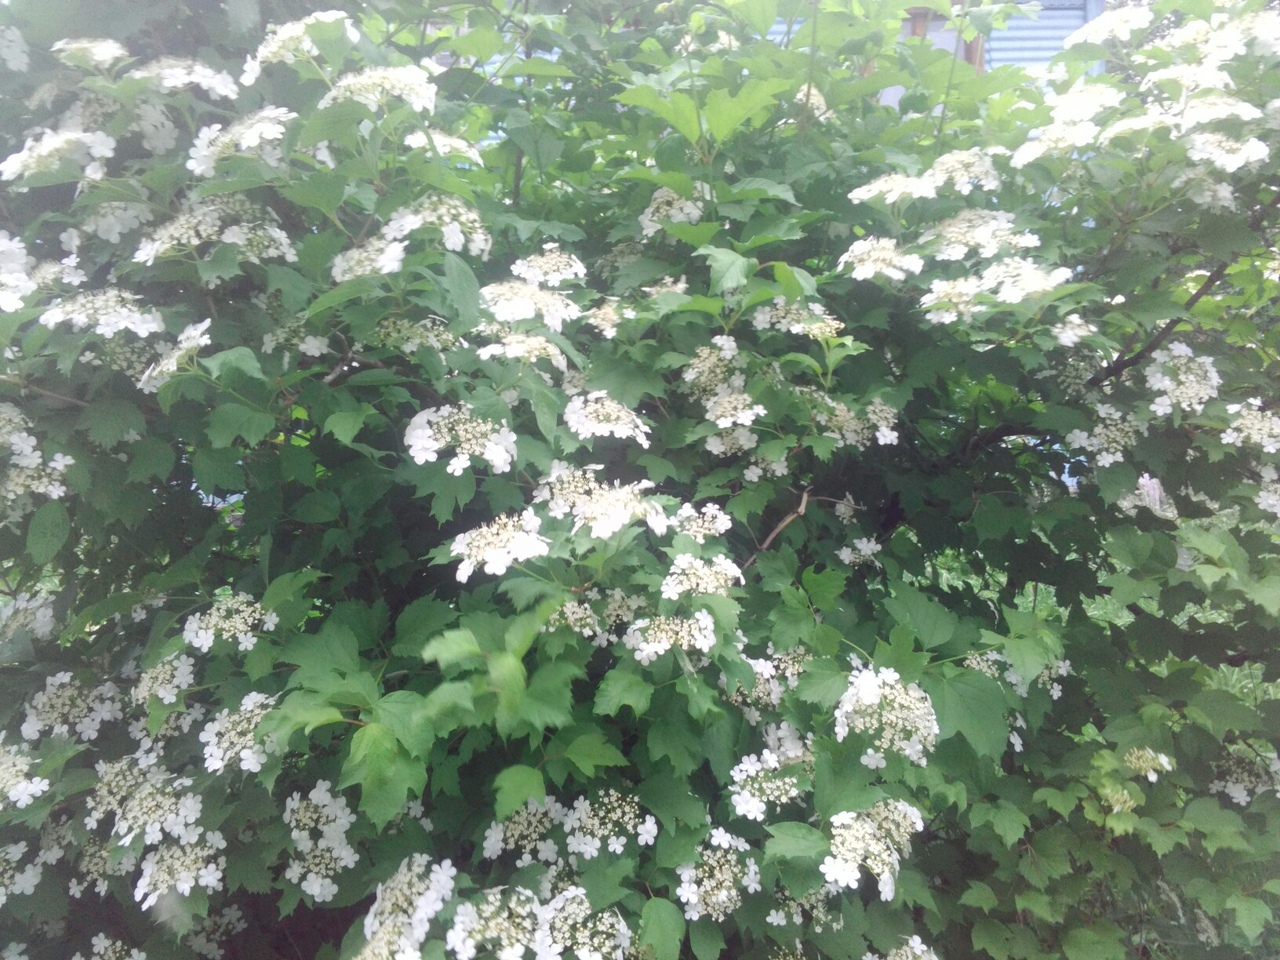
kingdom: Plantae
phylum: Tracheophyta
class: Magnoliopsida
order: Dipsacales
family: Viburnaceae
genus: Viburnum
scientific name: Viburnum opulus
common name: Guelder-rose
